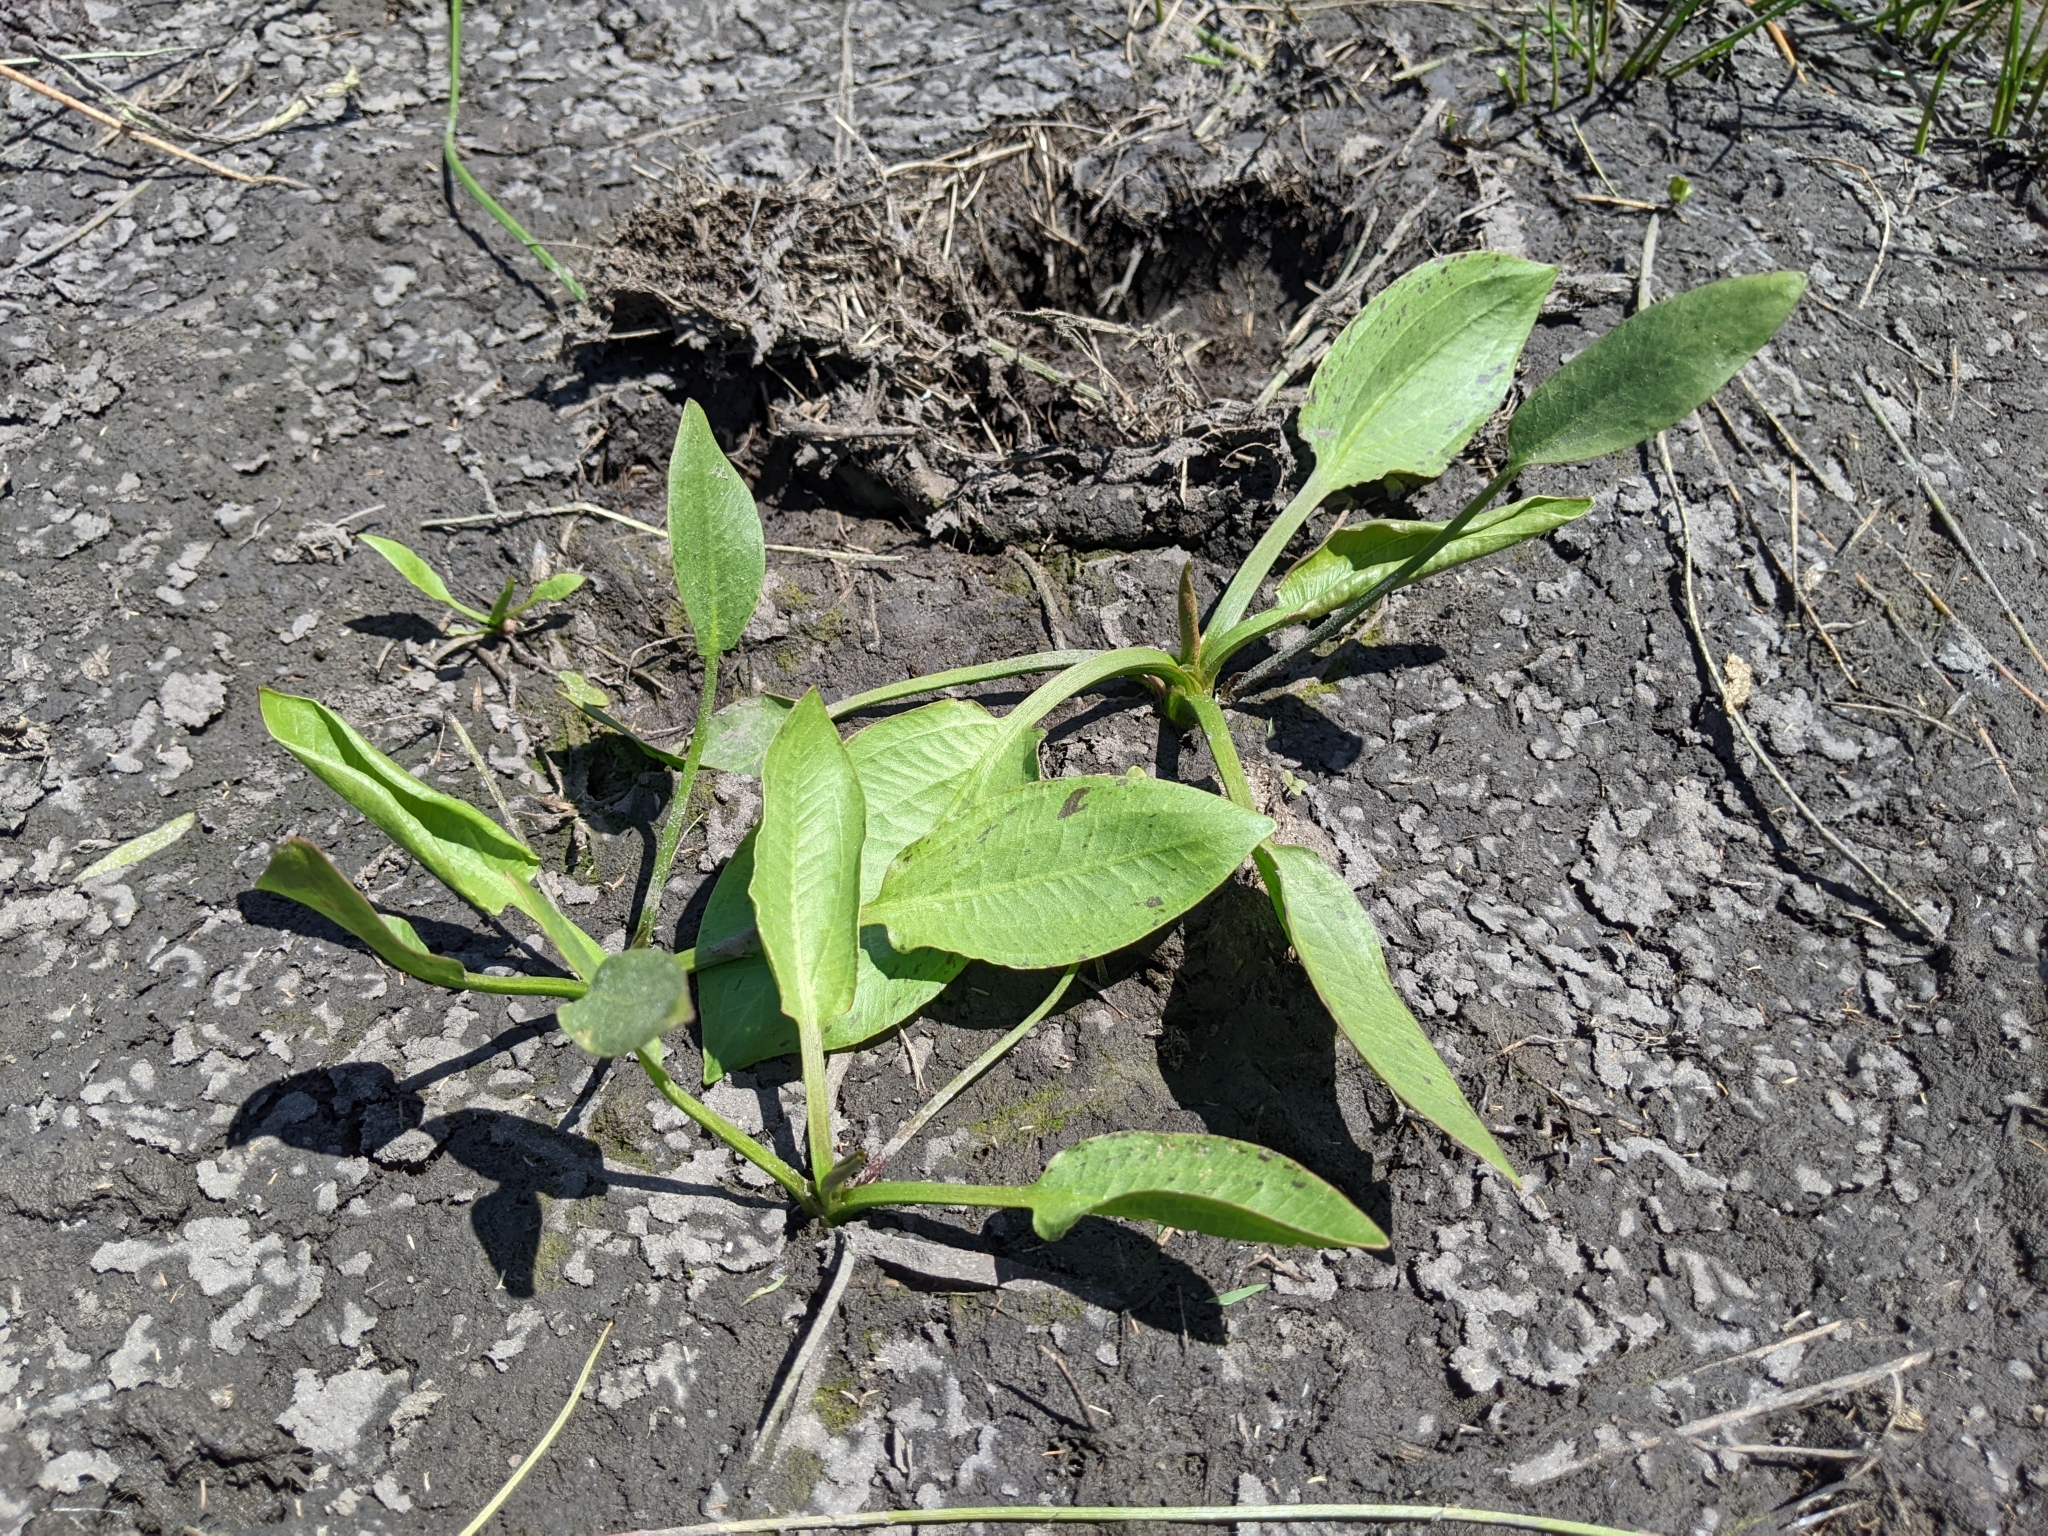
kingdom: Plantae
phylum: Tracheophyta
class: Liliopsida
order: Alismatales
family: Alismataceae
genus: Alisma
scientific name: Alisma triviale
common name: Northern water-plantain
